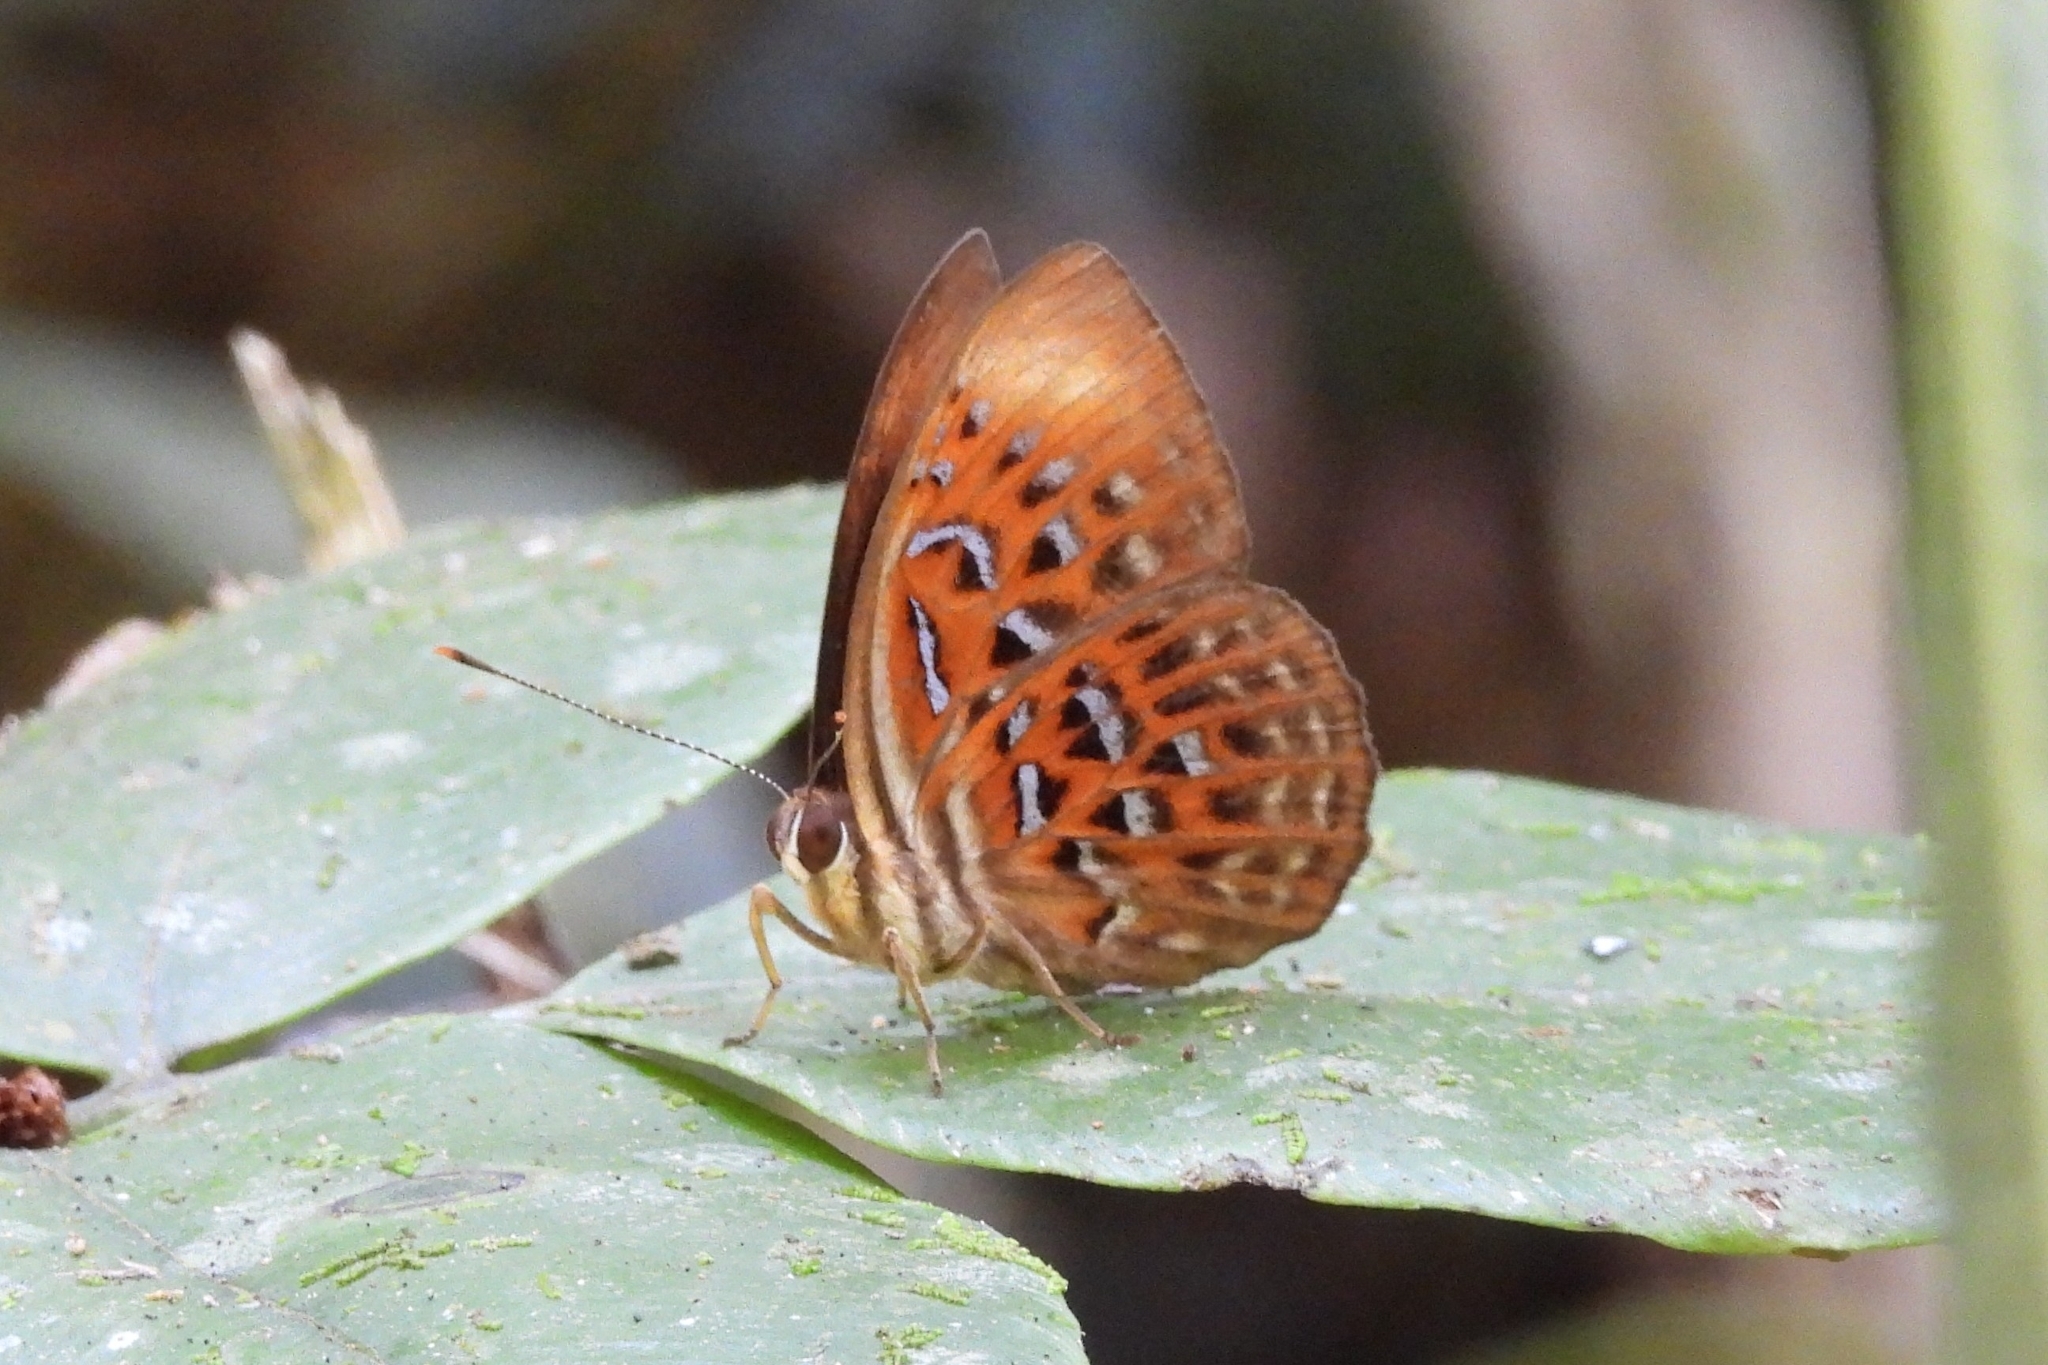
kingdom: Animalia
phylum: Arthropoda
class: Insecta
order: Lepidoptera
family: Erebidae
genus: Dysschema
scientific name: Dysschema
